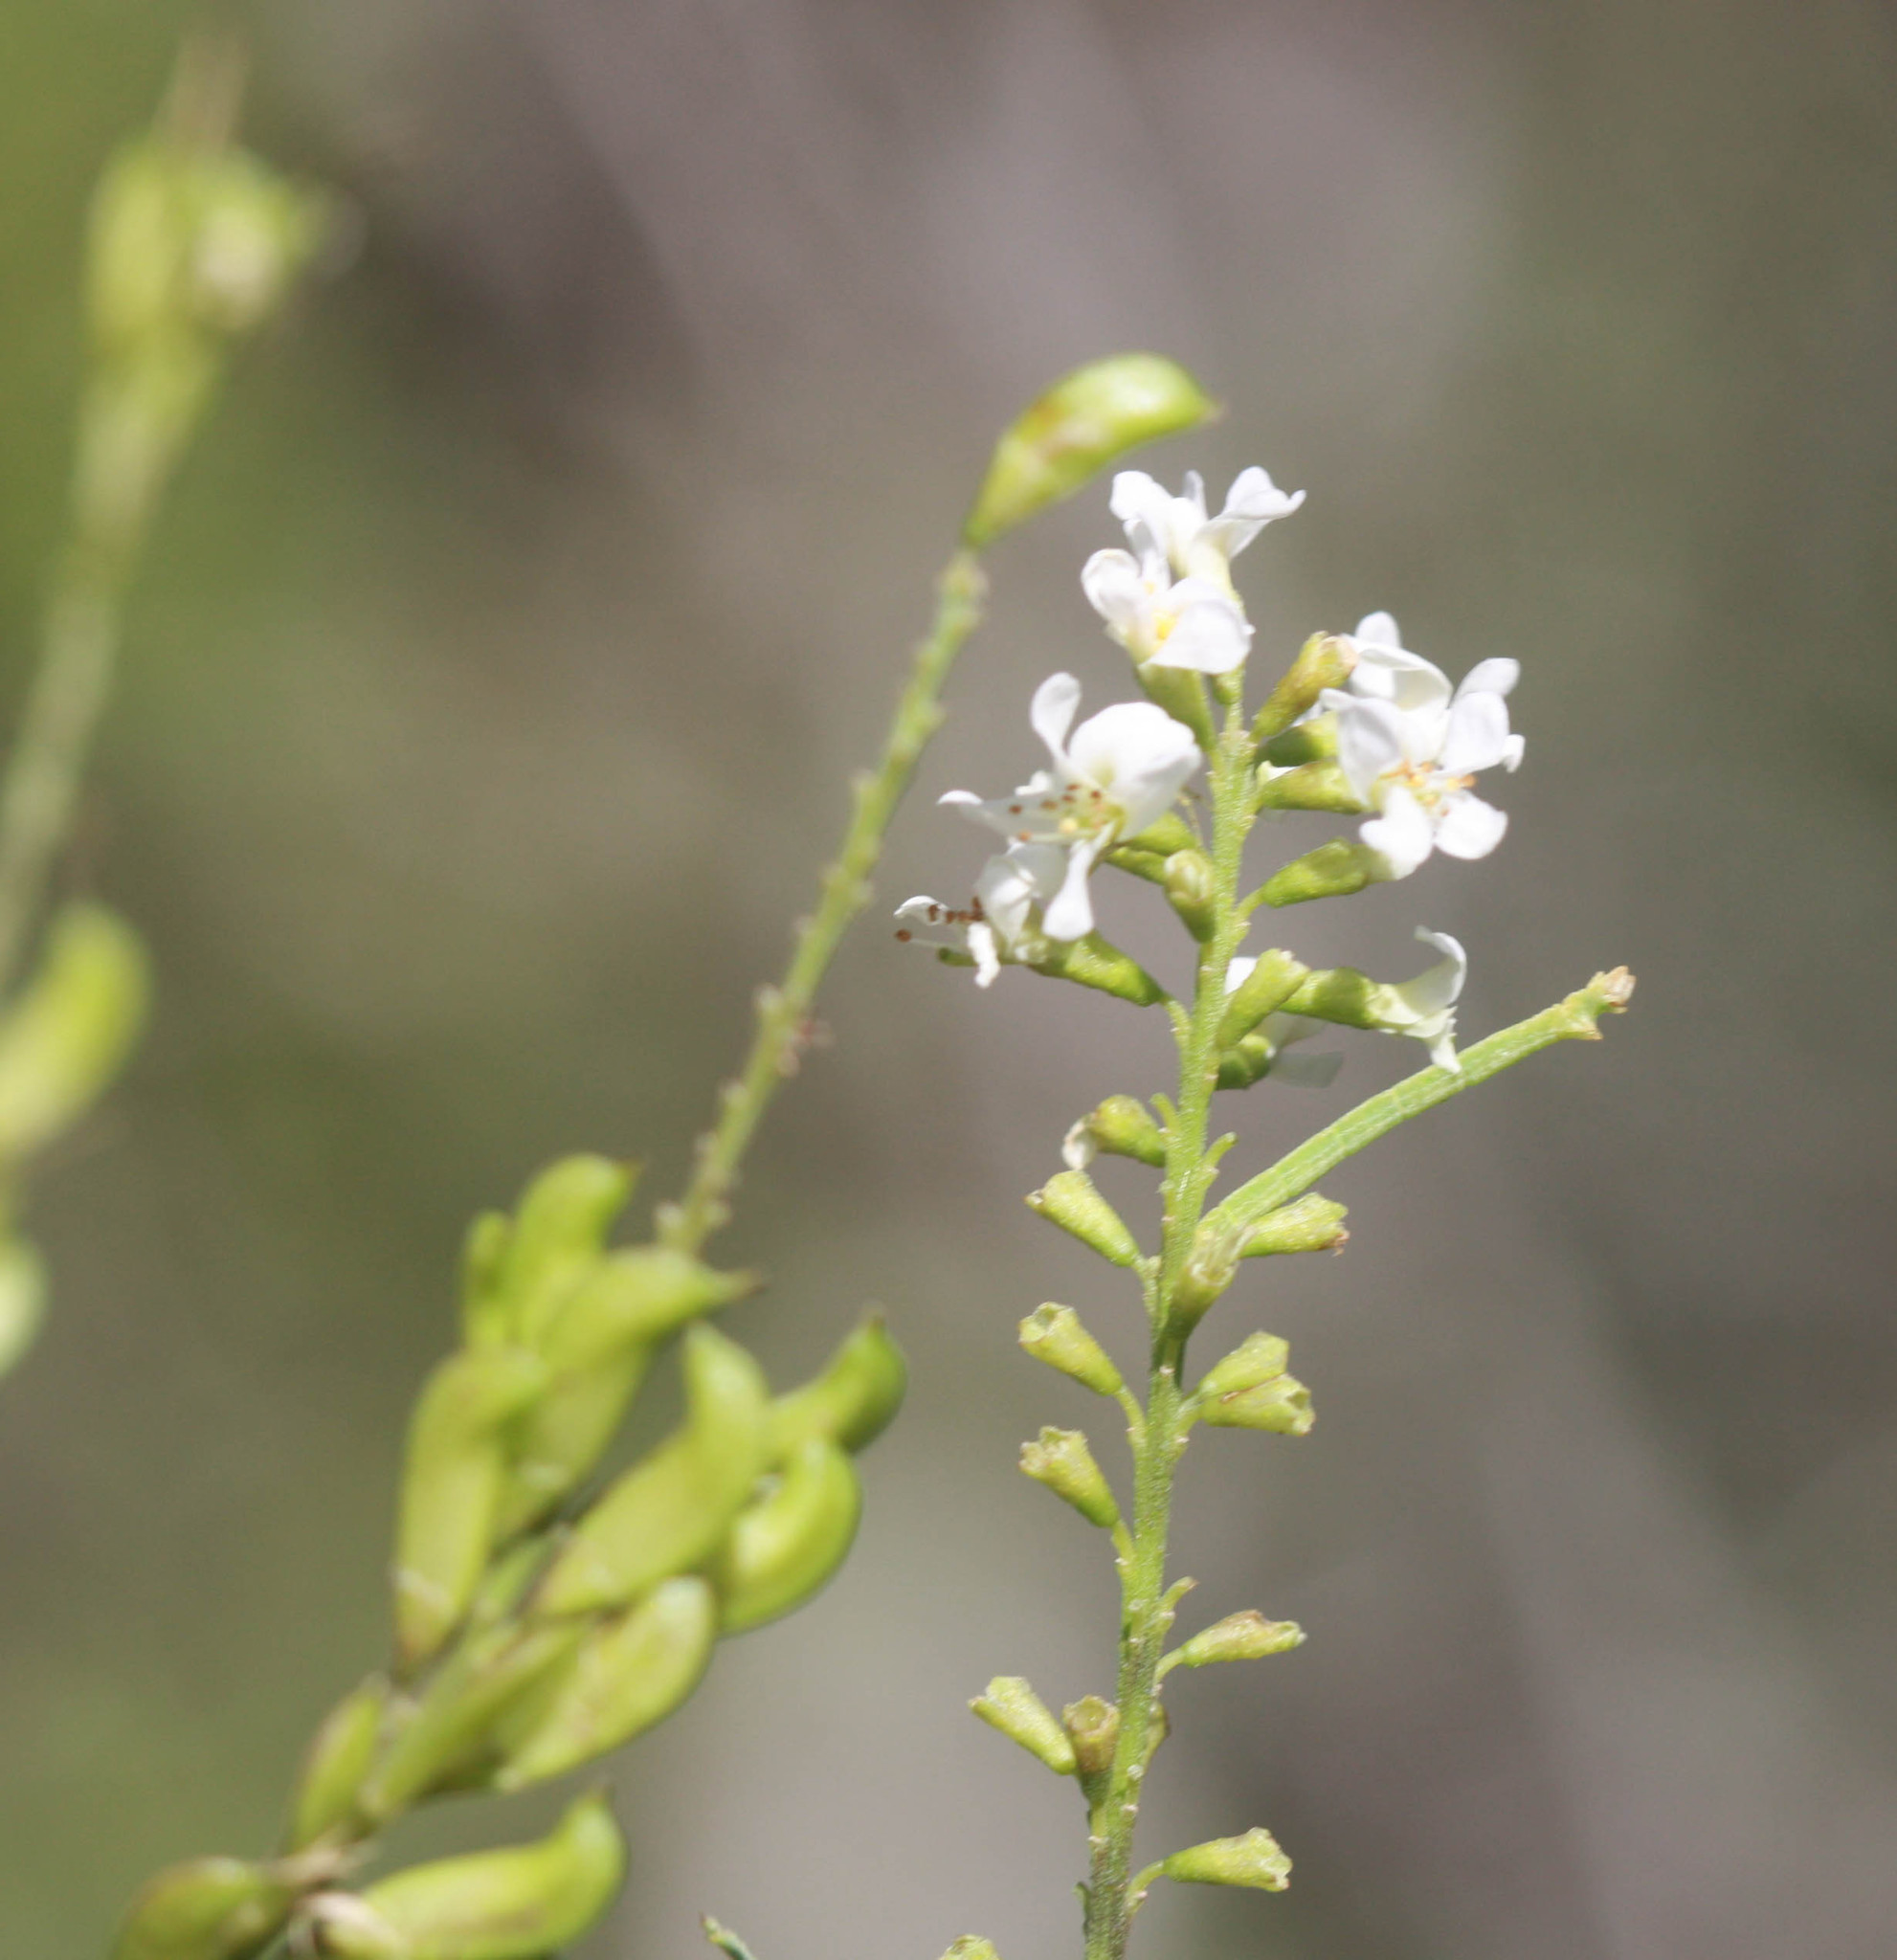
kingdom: Plantae
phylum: Tracheophyta
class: Magnoliopsida
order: Fabales
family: Fabaceae
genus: Eysenhardtia
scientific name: Eysenhardtia texana
